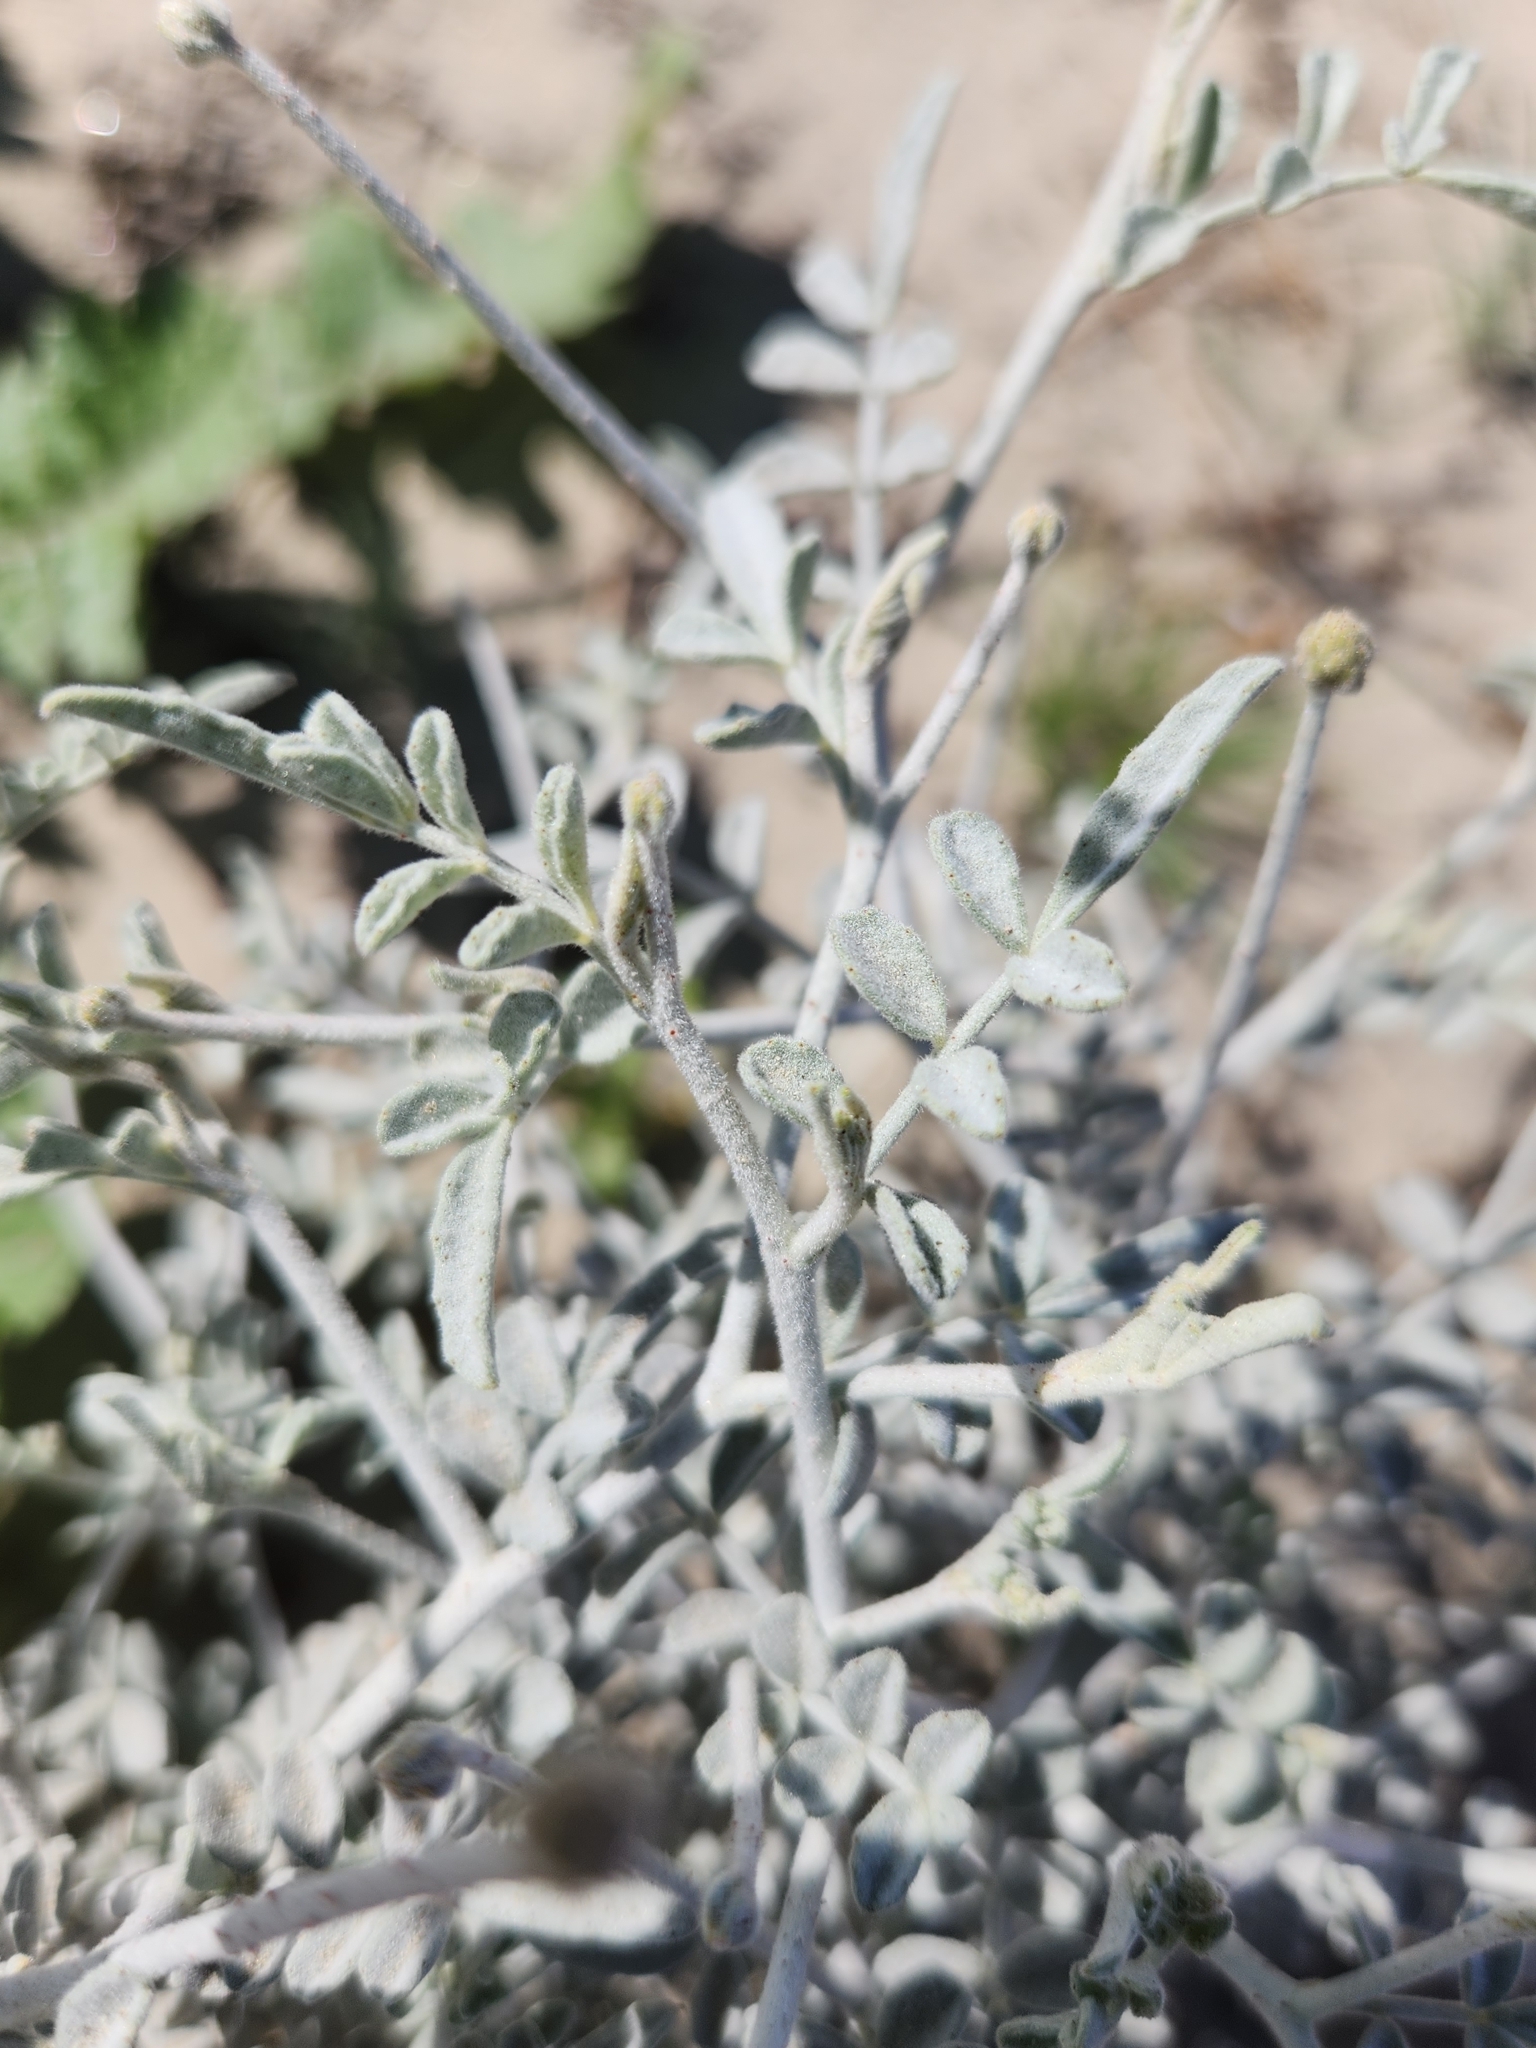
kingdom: Plantae
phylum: Tracheophyta
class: Magnoliopsida
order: Fabales
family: Fabaceae
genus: Psorothamnus
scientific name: Psorothamnus emoryi
